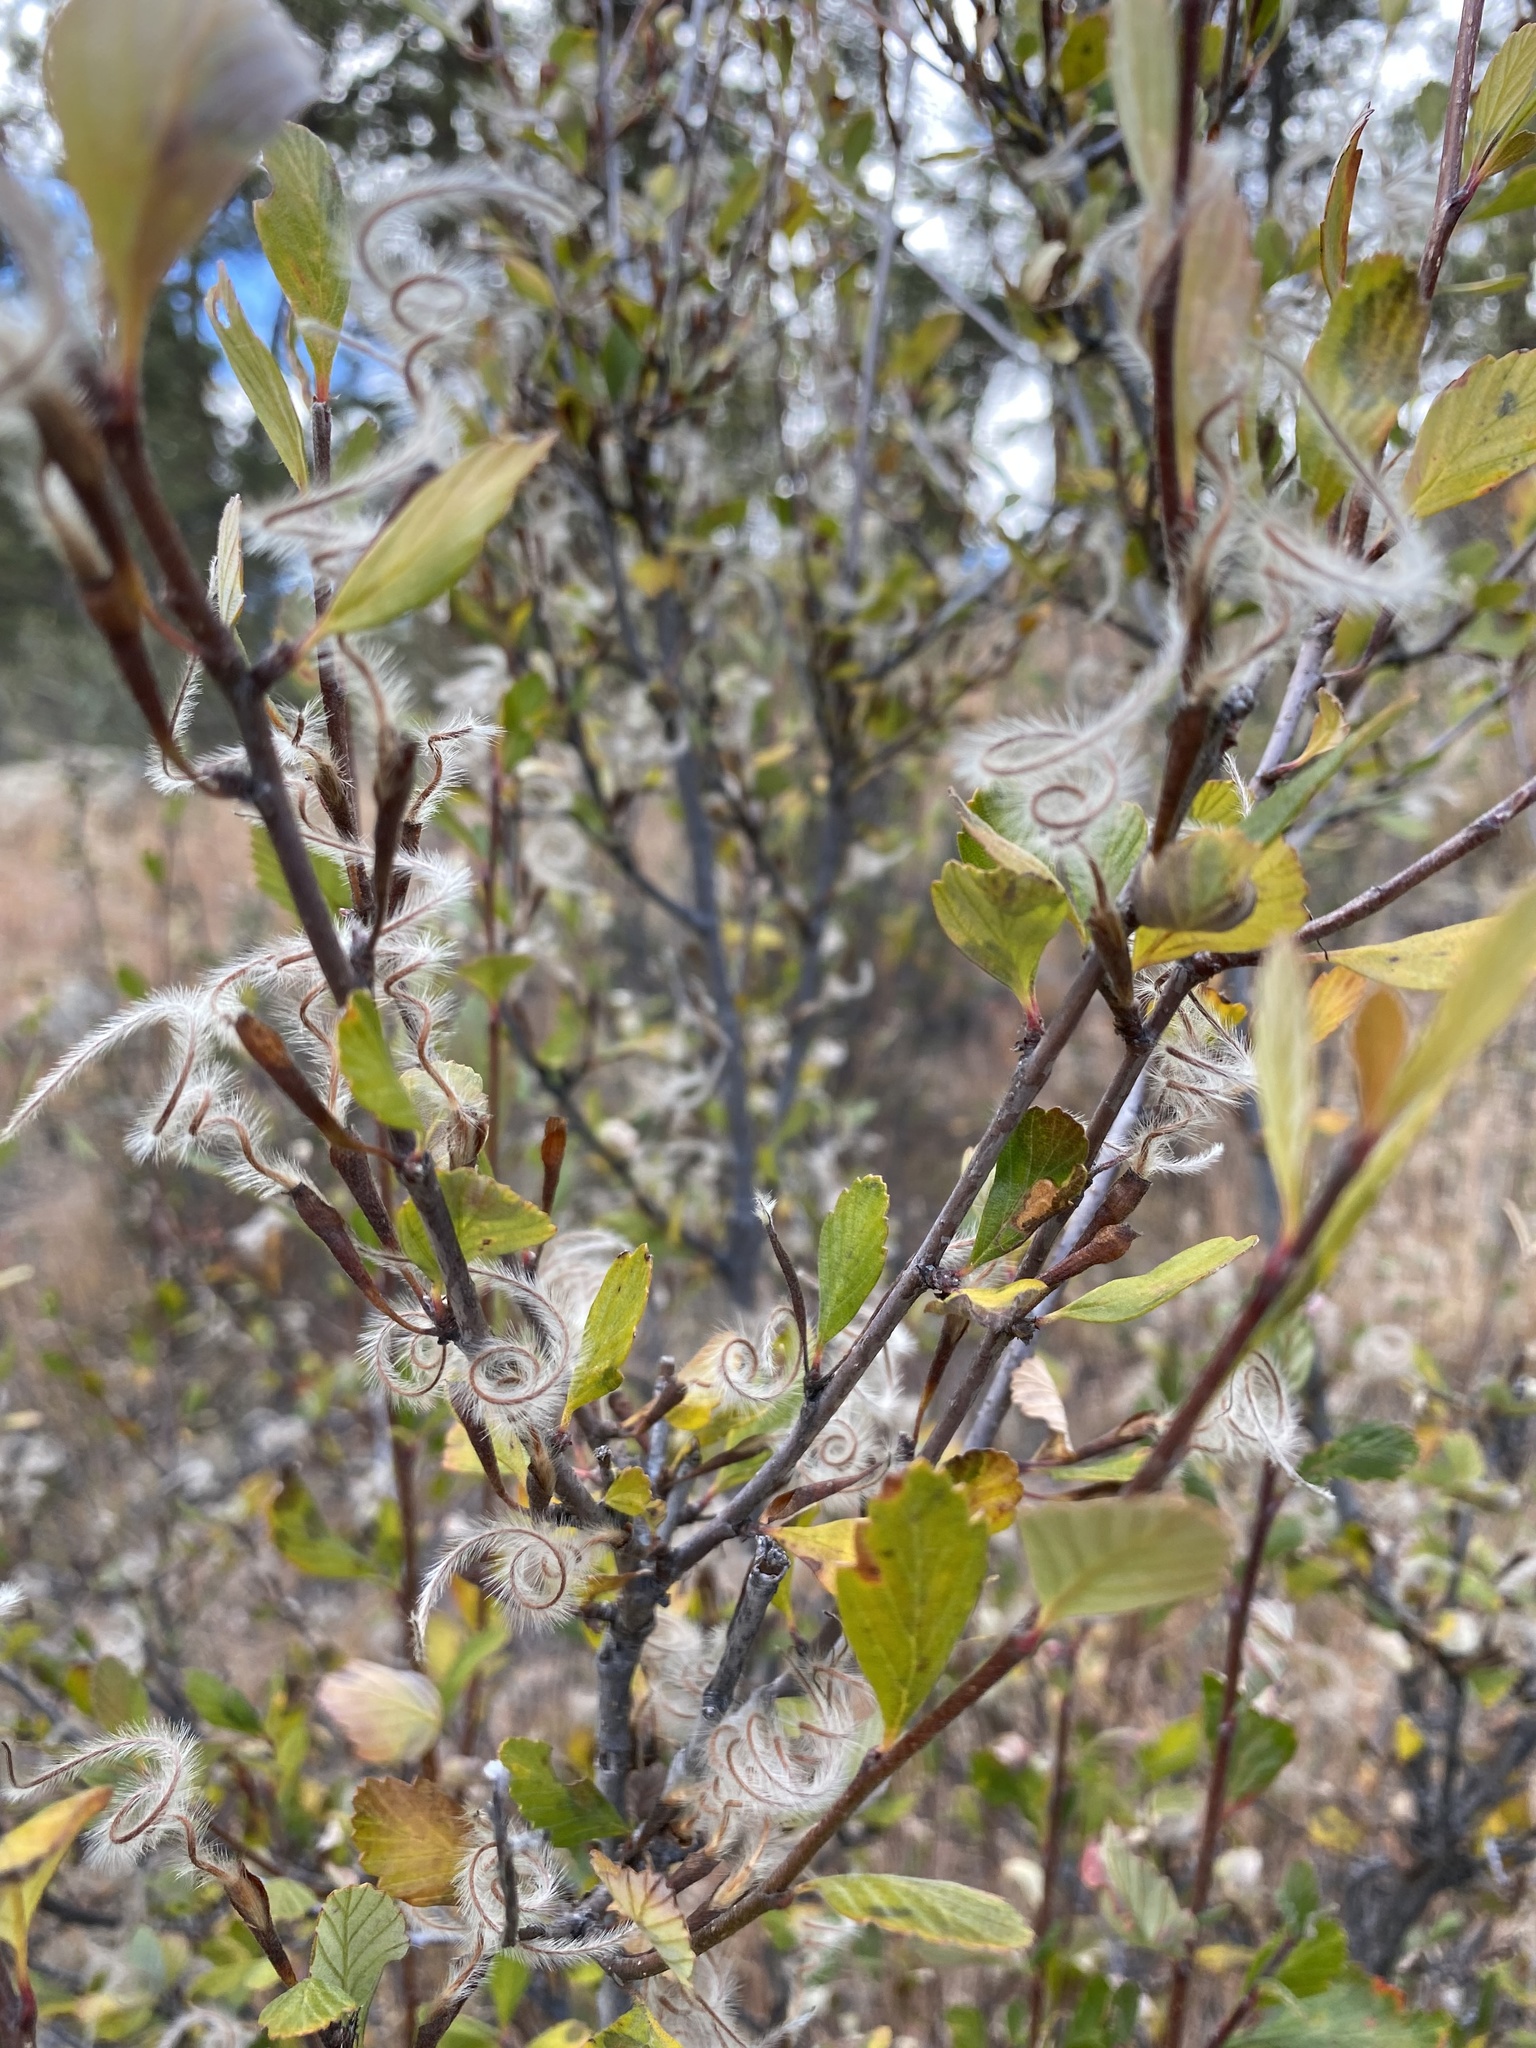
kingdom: Plantae
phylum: Tracheophyta
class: Magnoliopsida
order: Rosales
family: Rosaceae
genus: Cercocarpus
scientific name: Cercocarpus montanus
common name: Alder-leaf cercocarpus
